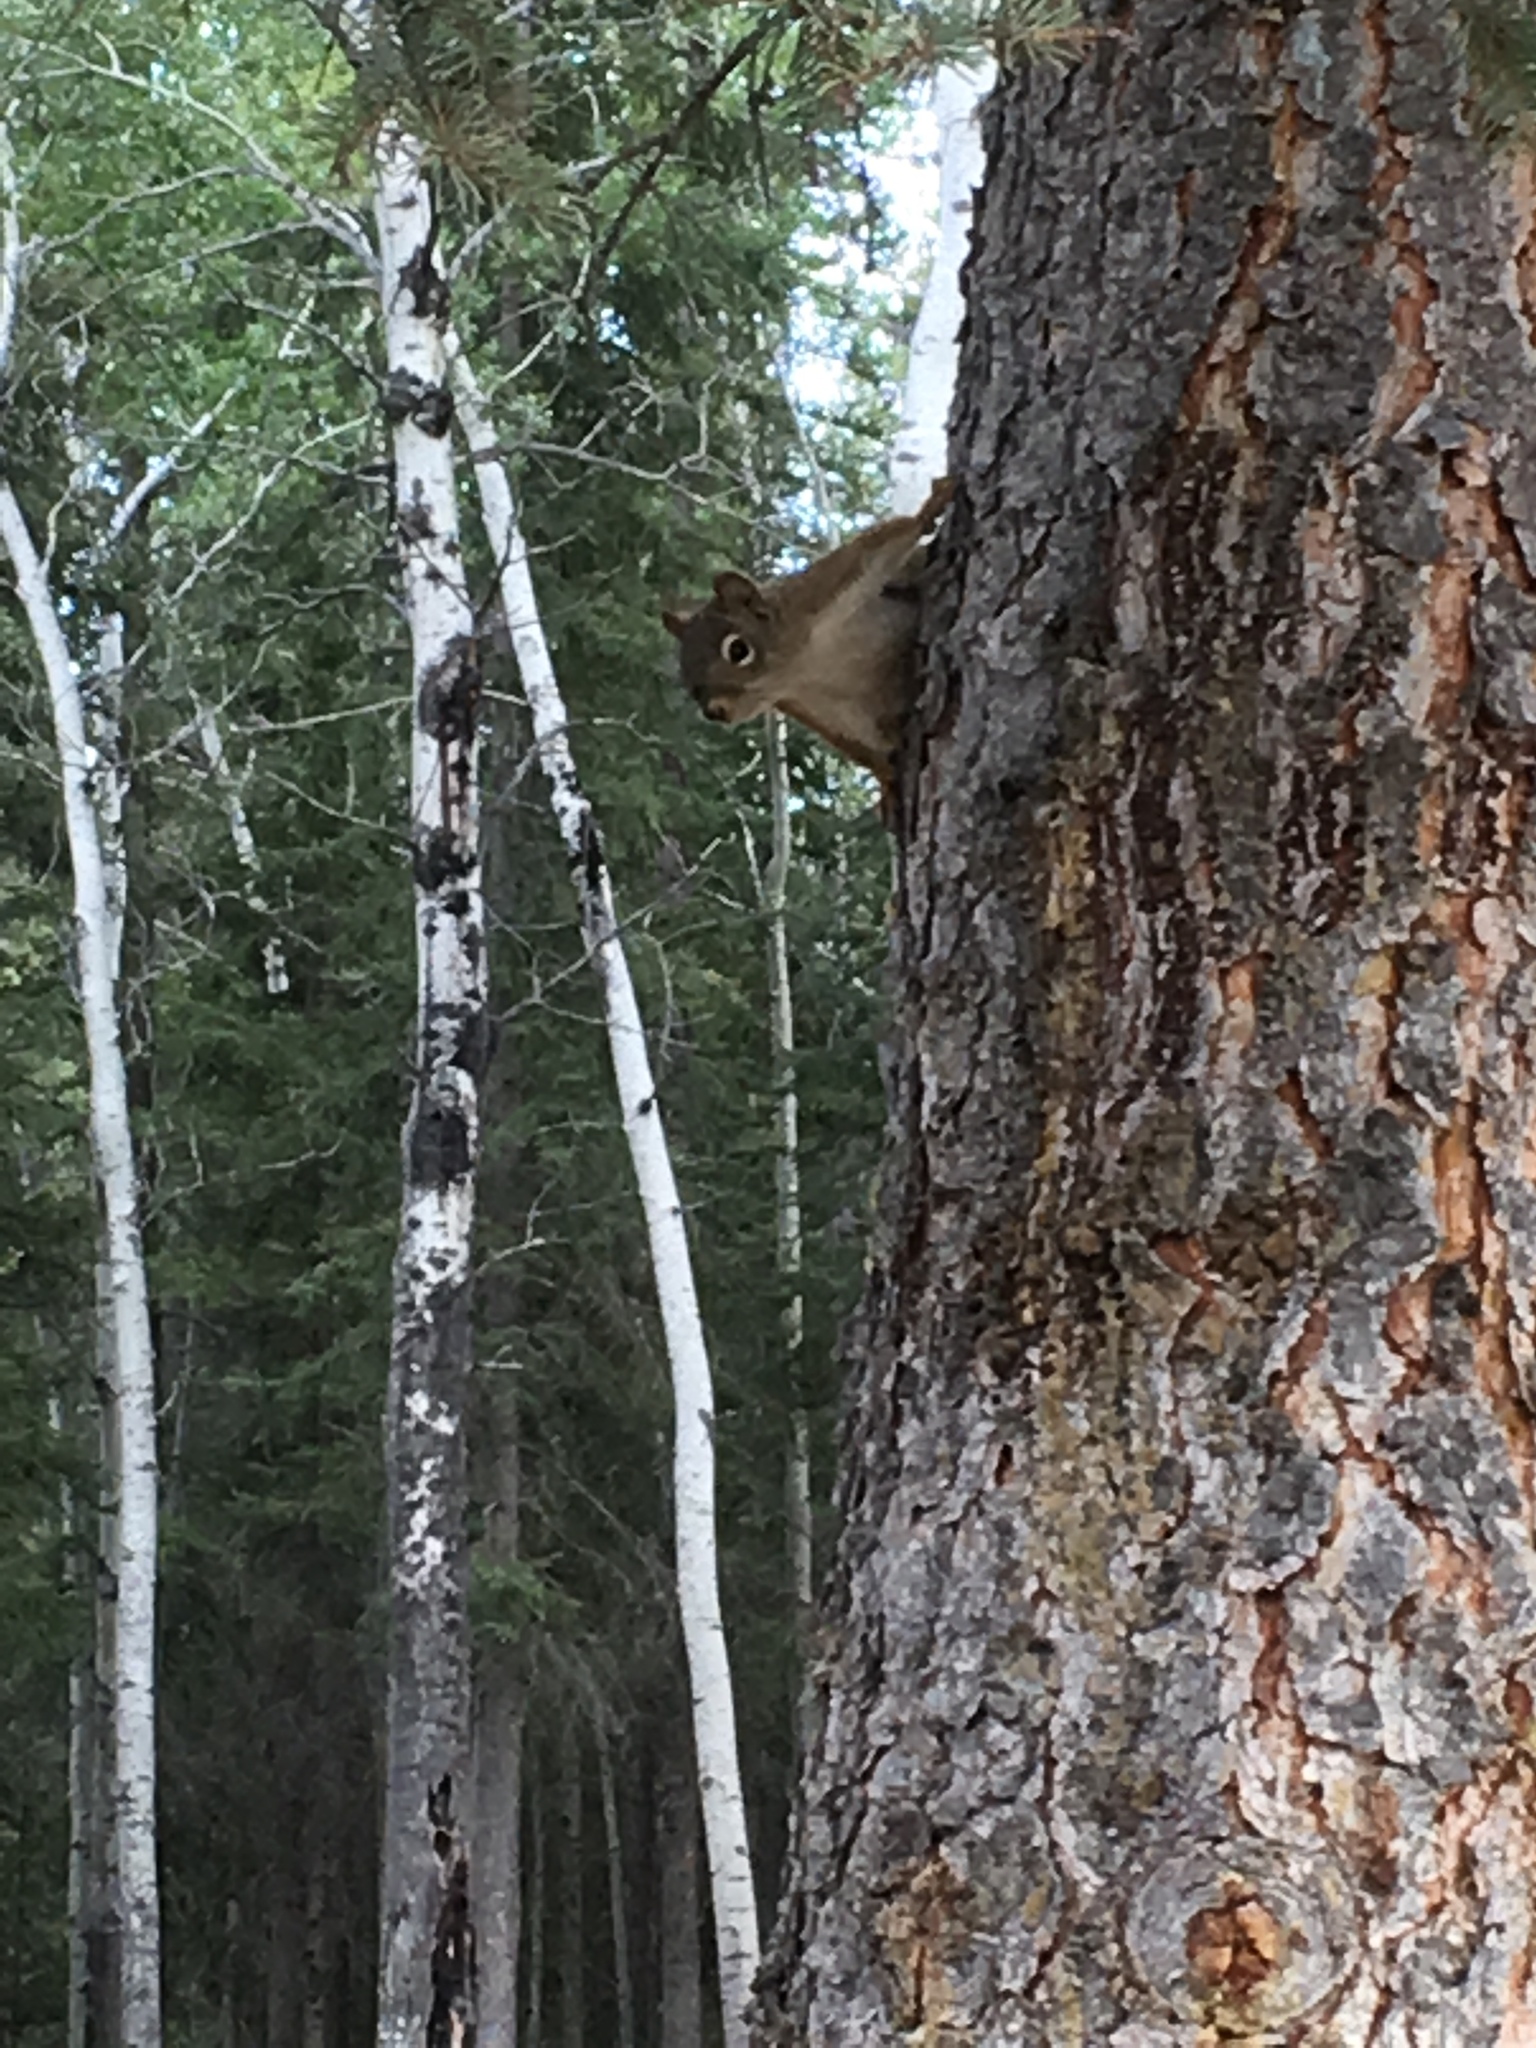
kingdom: Animalia
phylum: Chordata
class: Mammalia
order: Rodentia
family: Sciuridae
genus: Tamiasciurus
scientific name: Tamiasciurus hudsonicus
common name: Red squirrel
